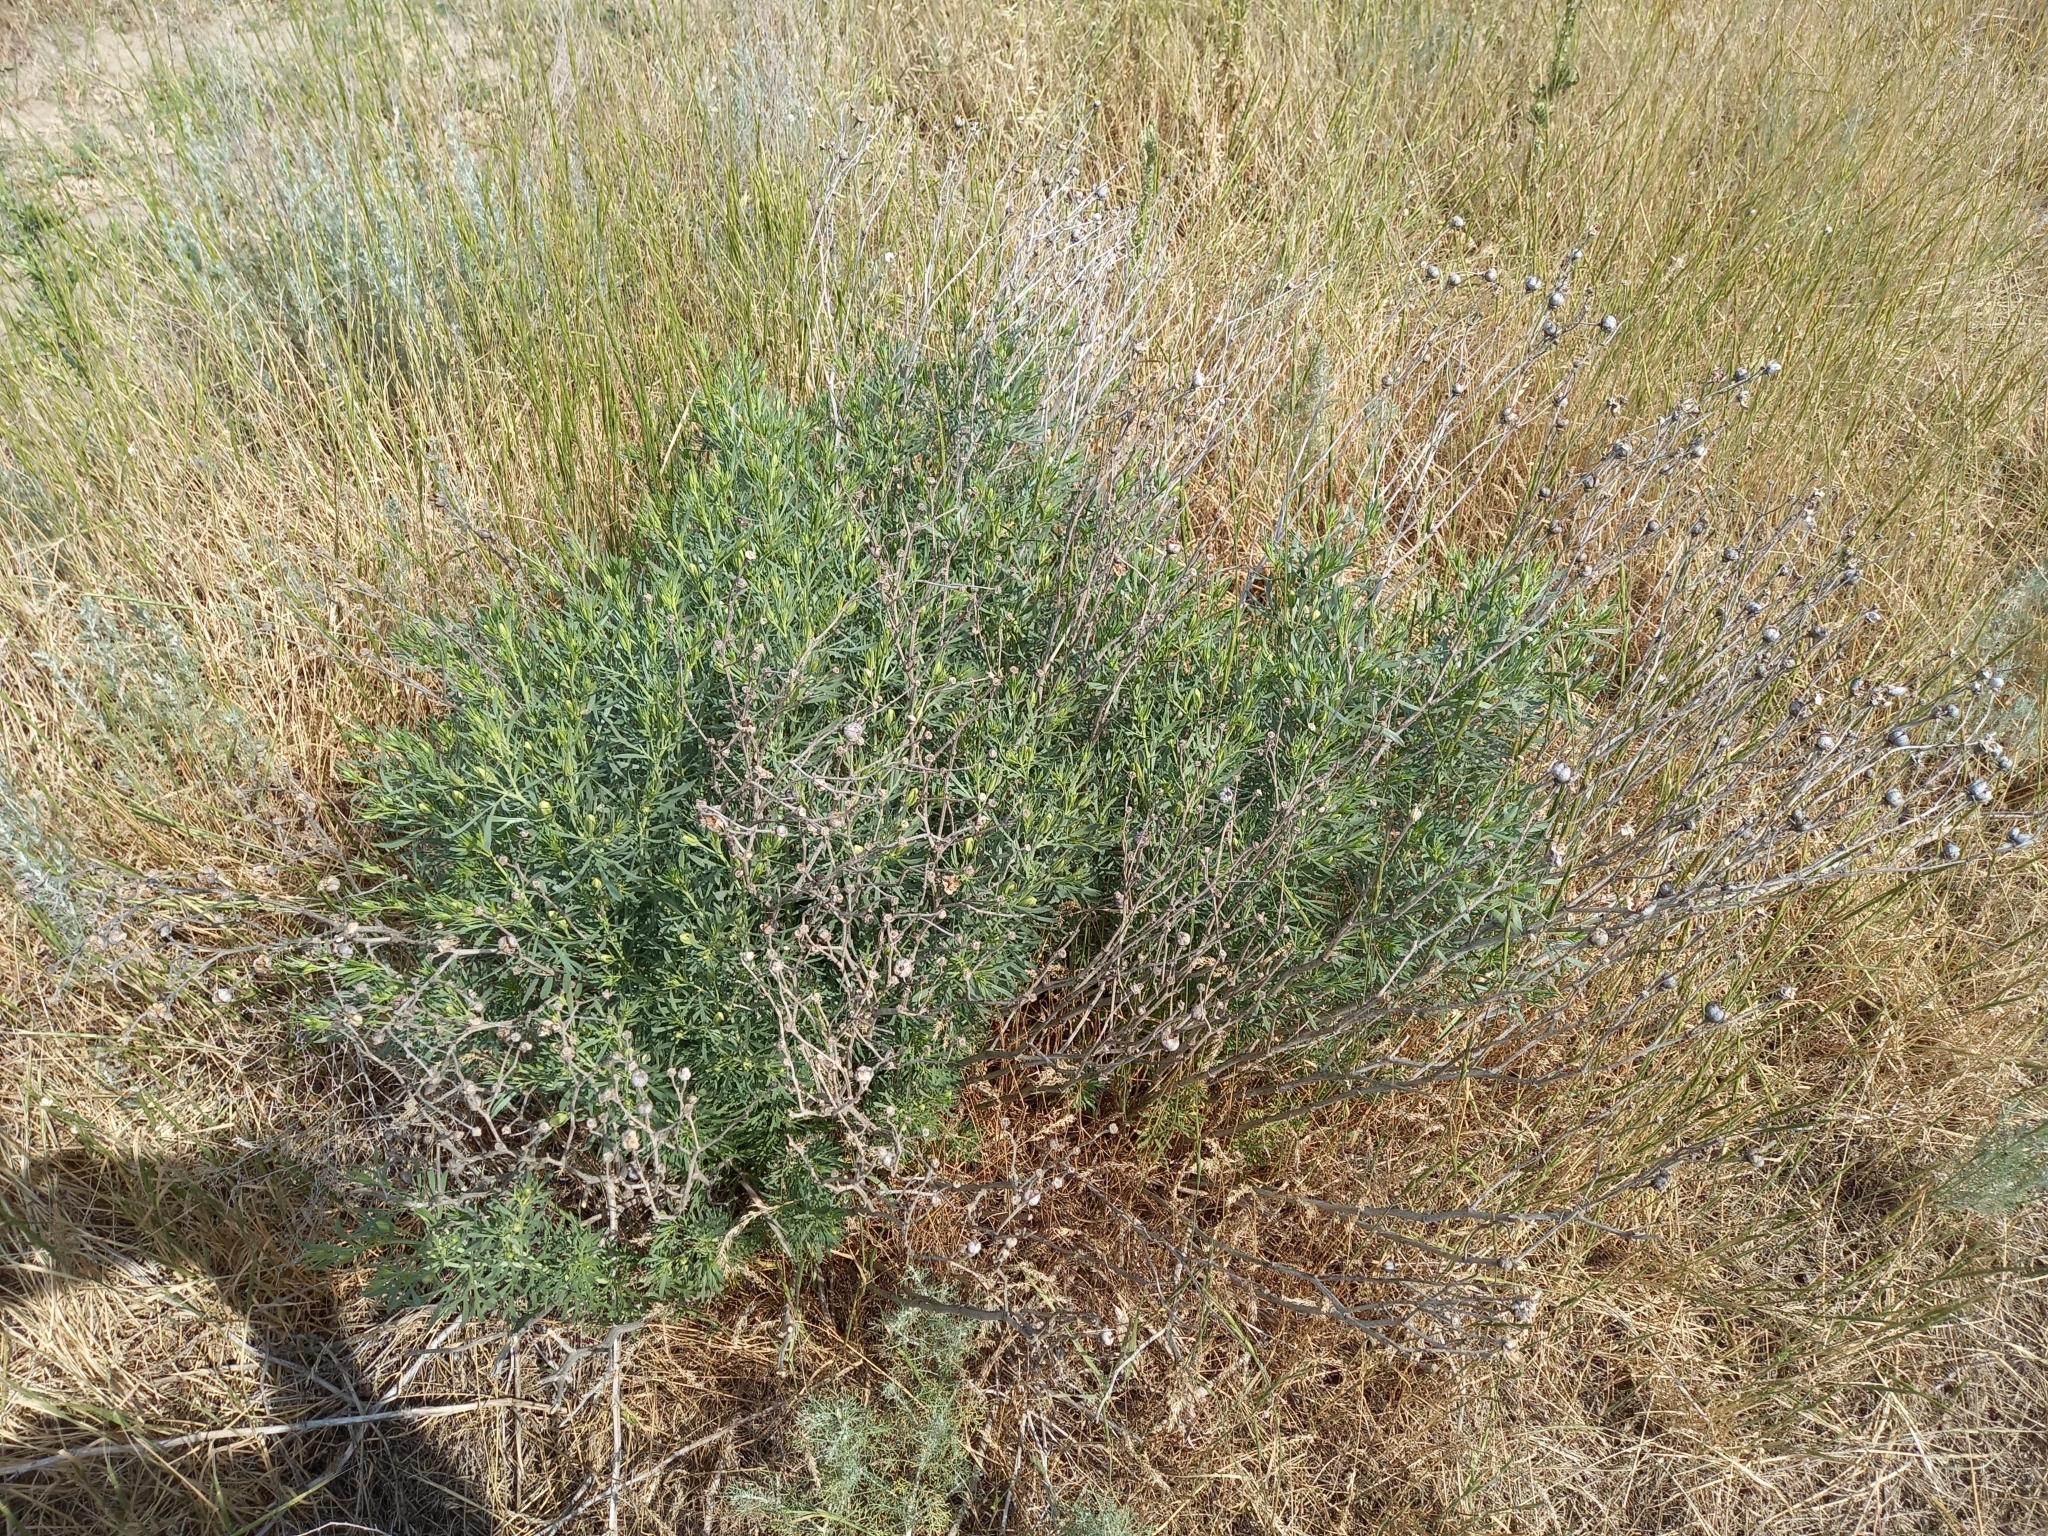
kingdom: Plantae
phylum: Tracheophyta
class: Magnoliopsida
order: Sapindales
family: Tetradiclidaceae
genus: Peganum
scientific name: Peganum harmala
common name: Harmal peganum
